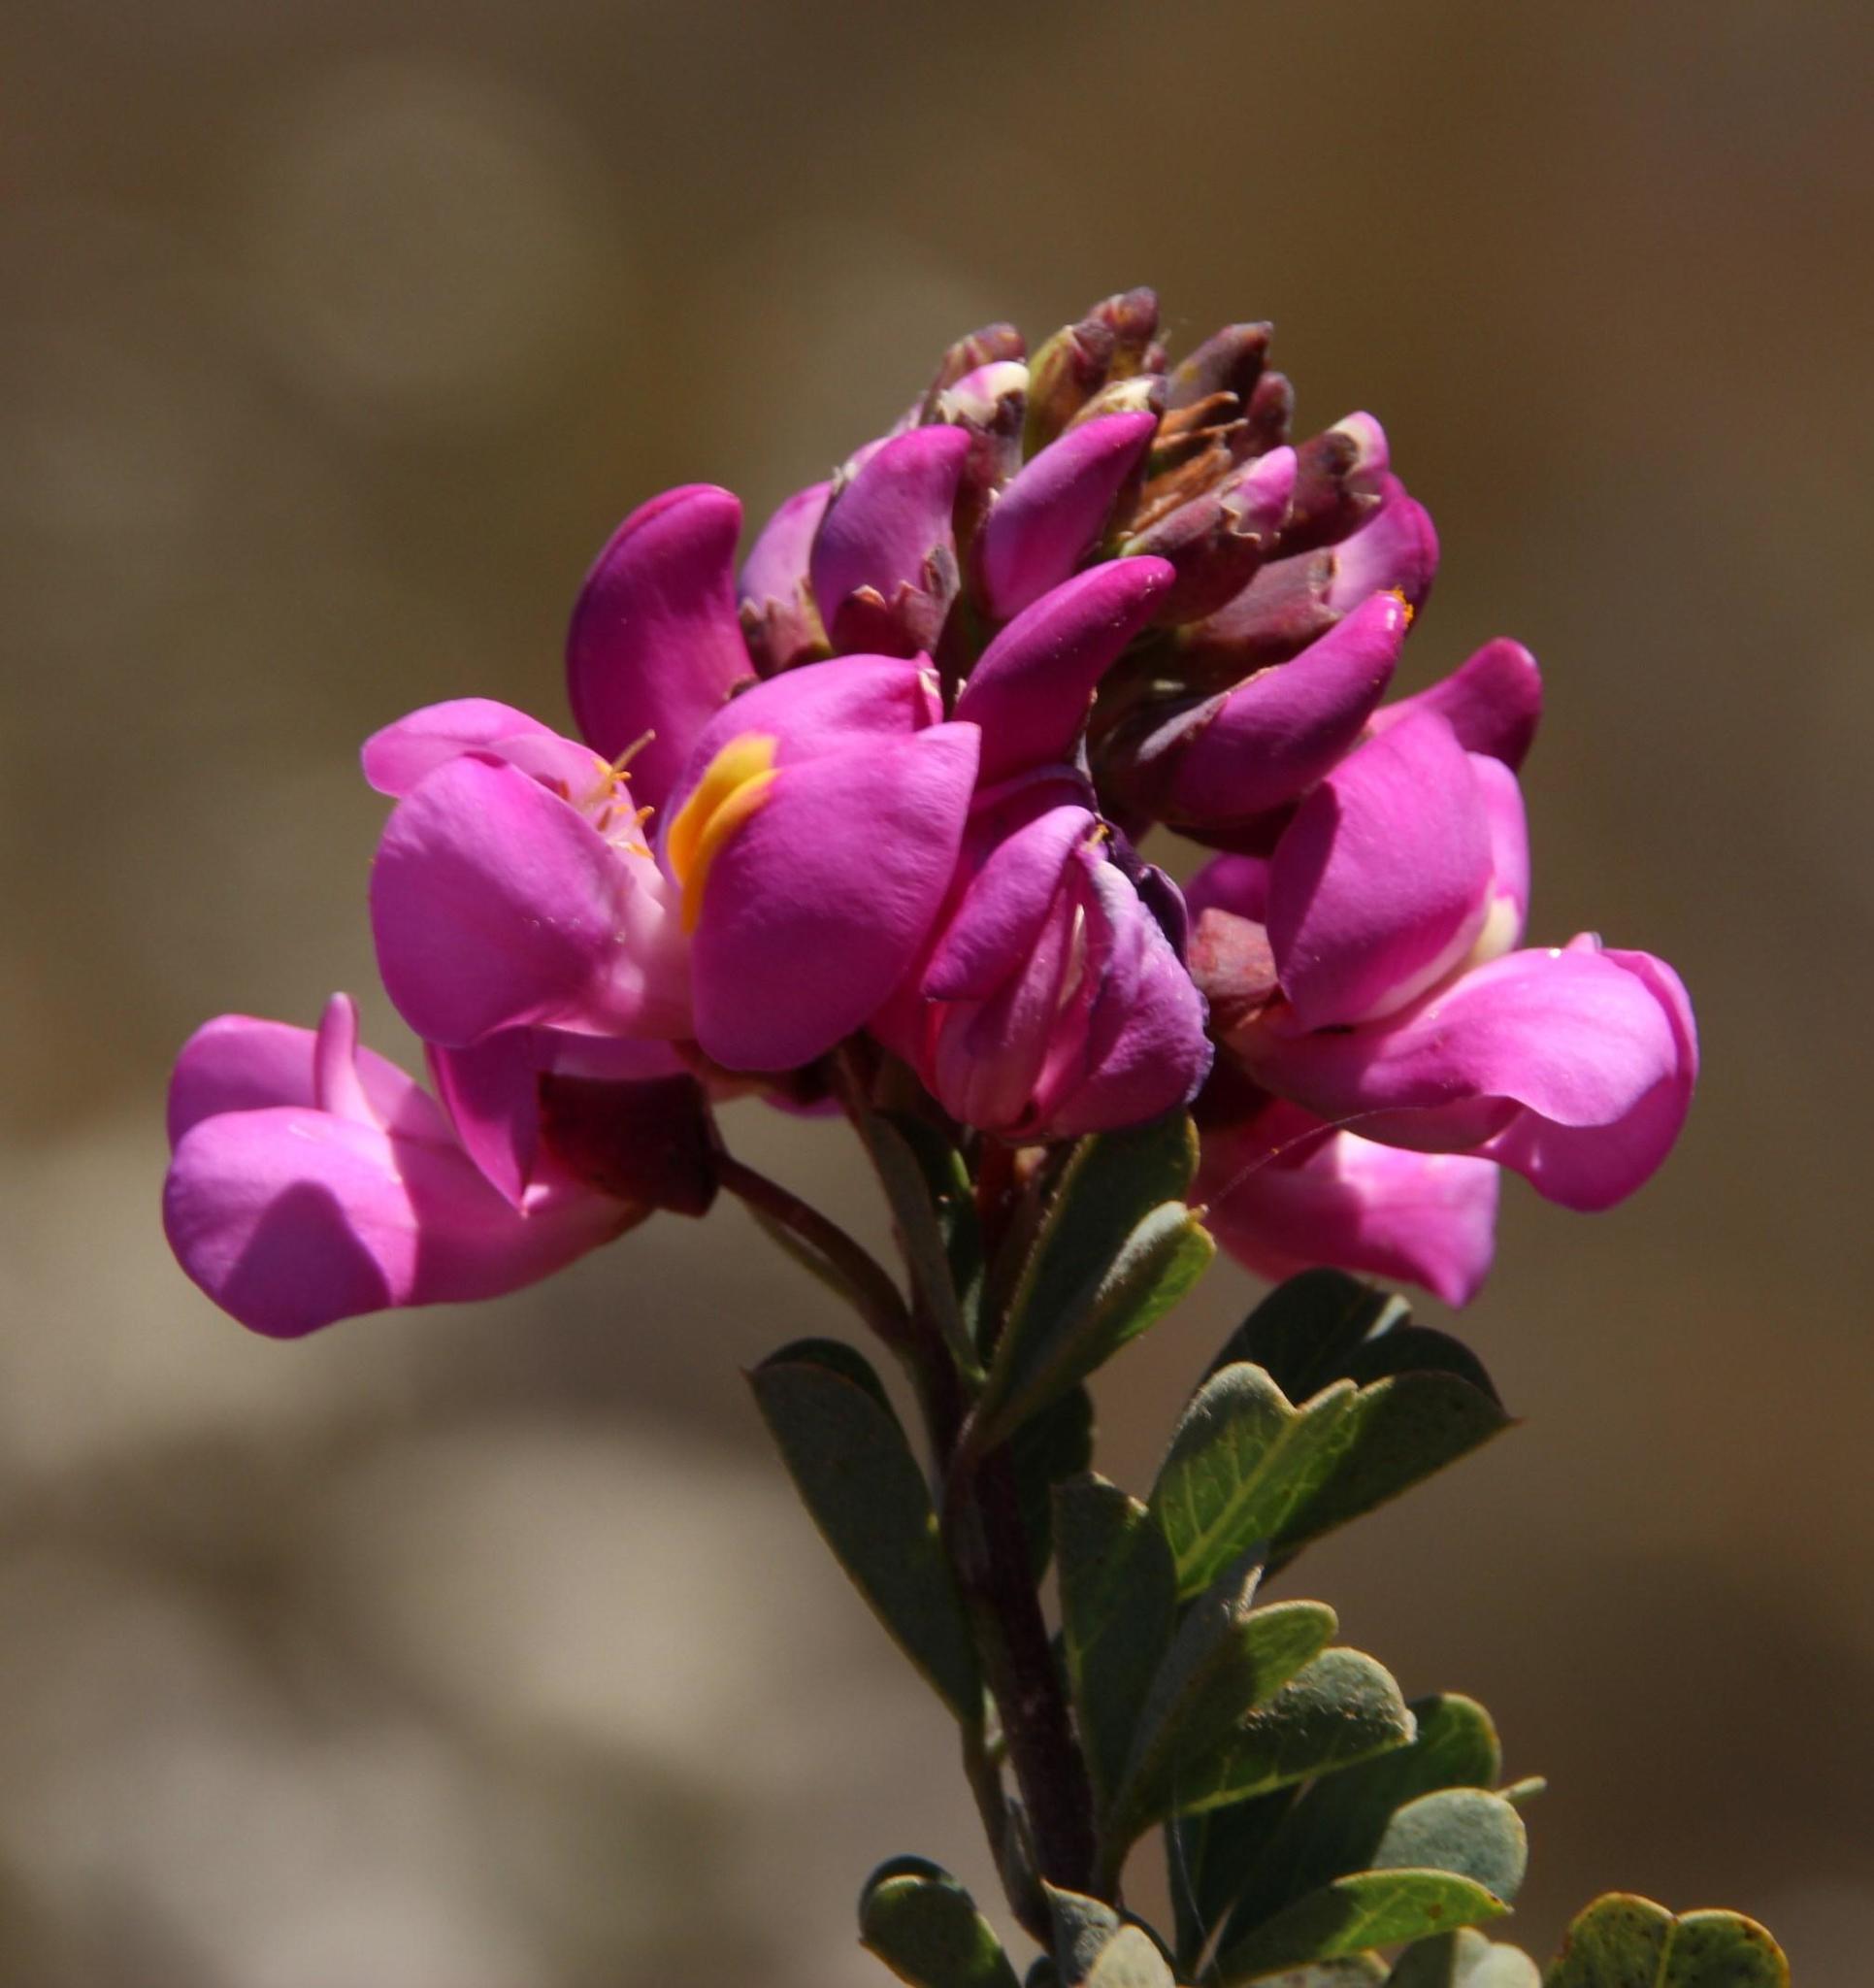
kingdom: Plantae
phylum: Tracheophyta
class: Magnoliopsida
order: Fabales
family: Fabaceae
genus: Hypocalyptus
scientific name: Hypocalyptus sophoroides
